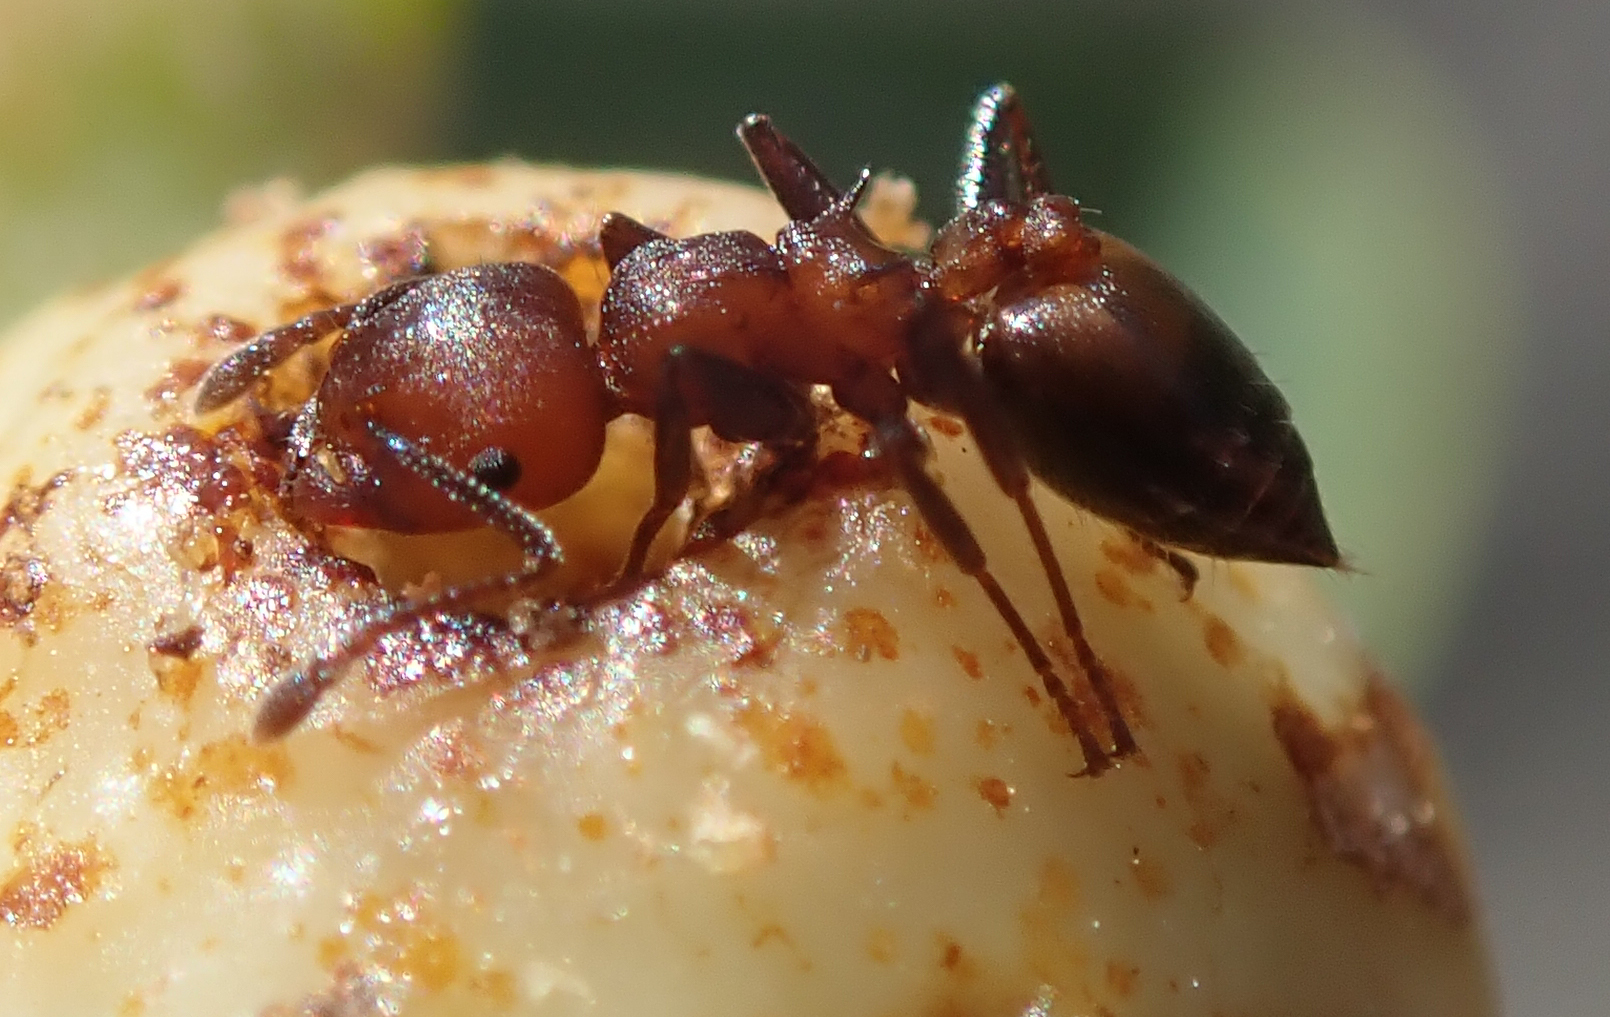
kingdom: Animalia
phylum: Arthropoda
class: Insecta
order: Hymenoptera
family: Formicidae
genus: Crematogaster
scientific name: Crematogaster acaciae
